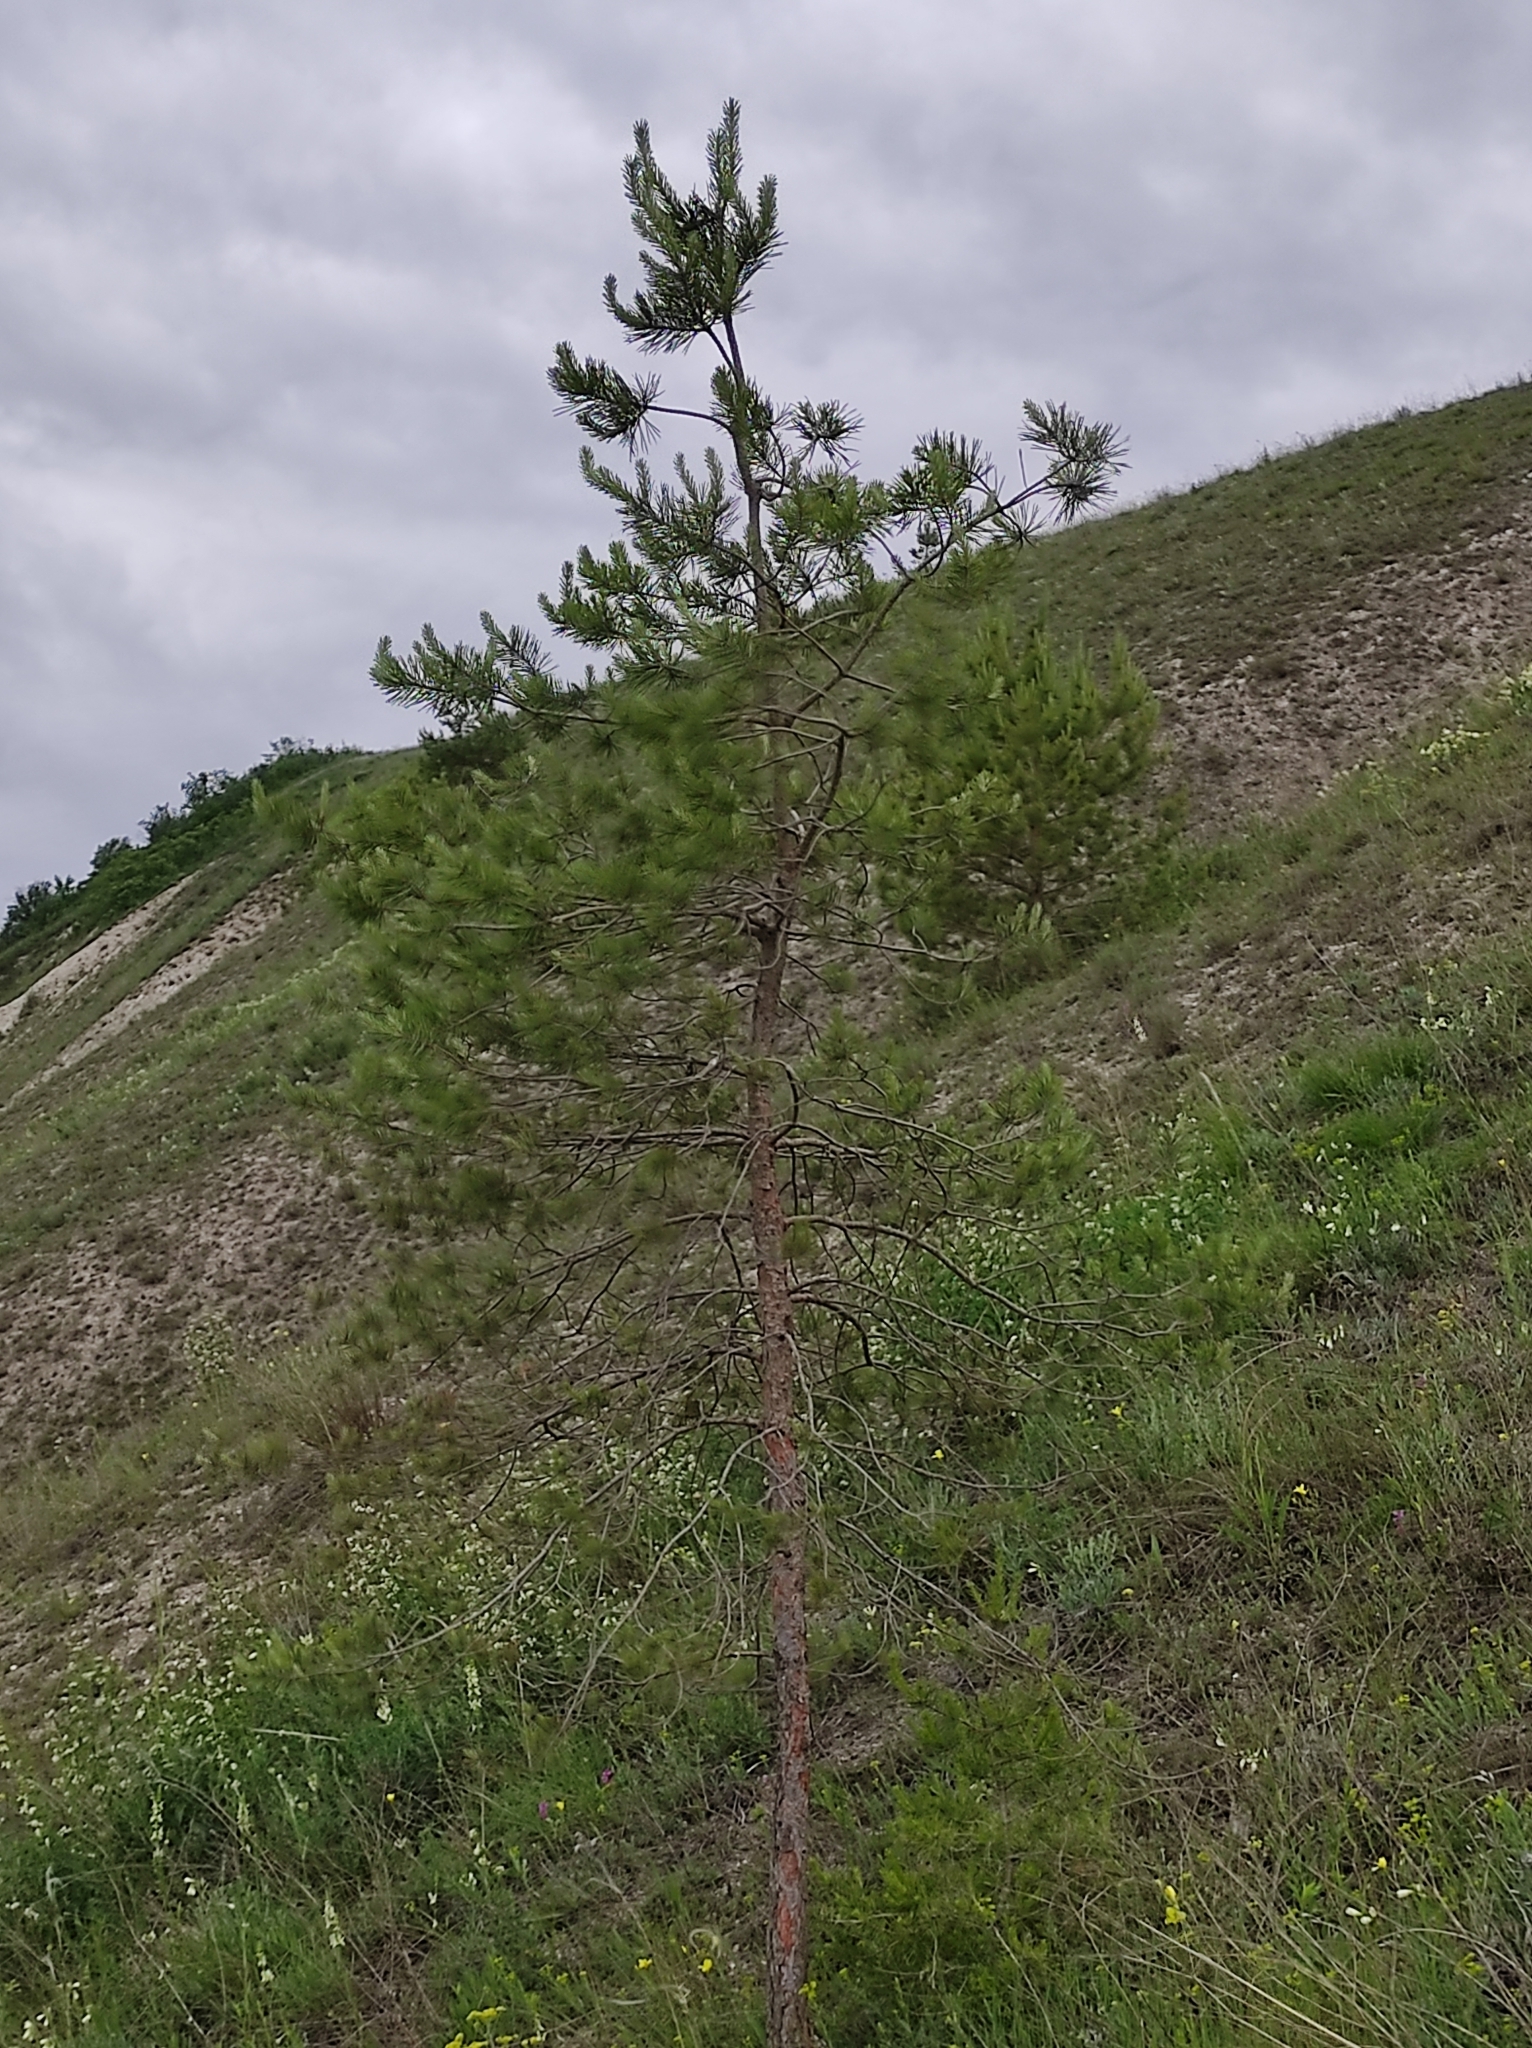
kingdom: Plantae
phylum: Tracheophyta
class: Pinopsida
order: Pinales
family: Pinaceae
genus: Pinus
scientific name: Pinus sylvestris
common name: Scots pine
